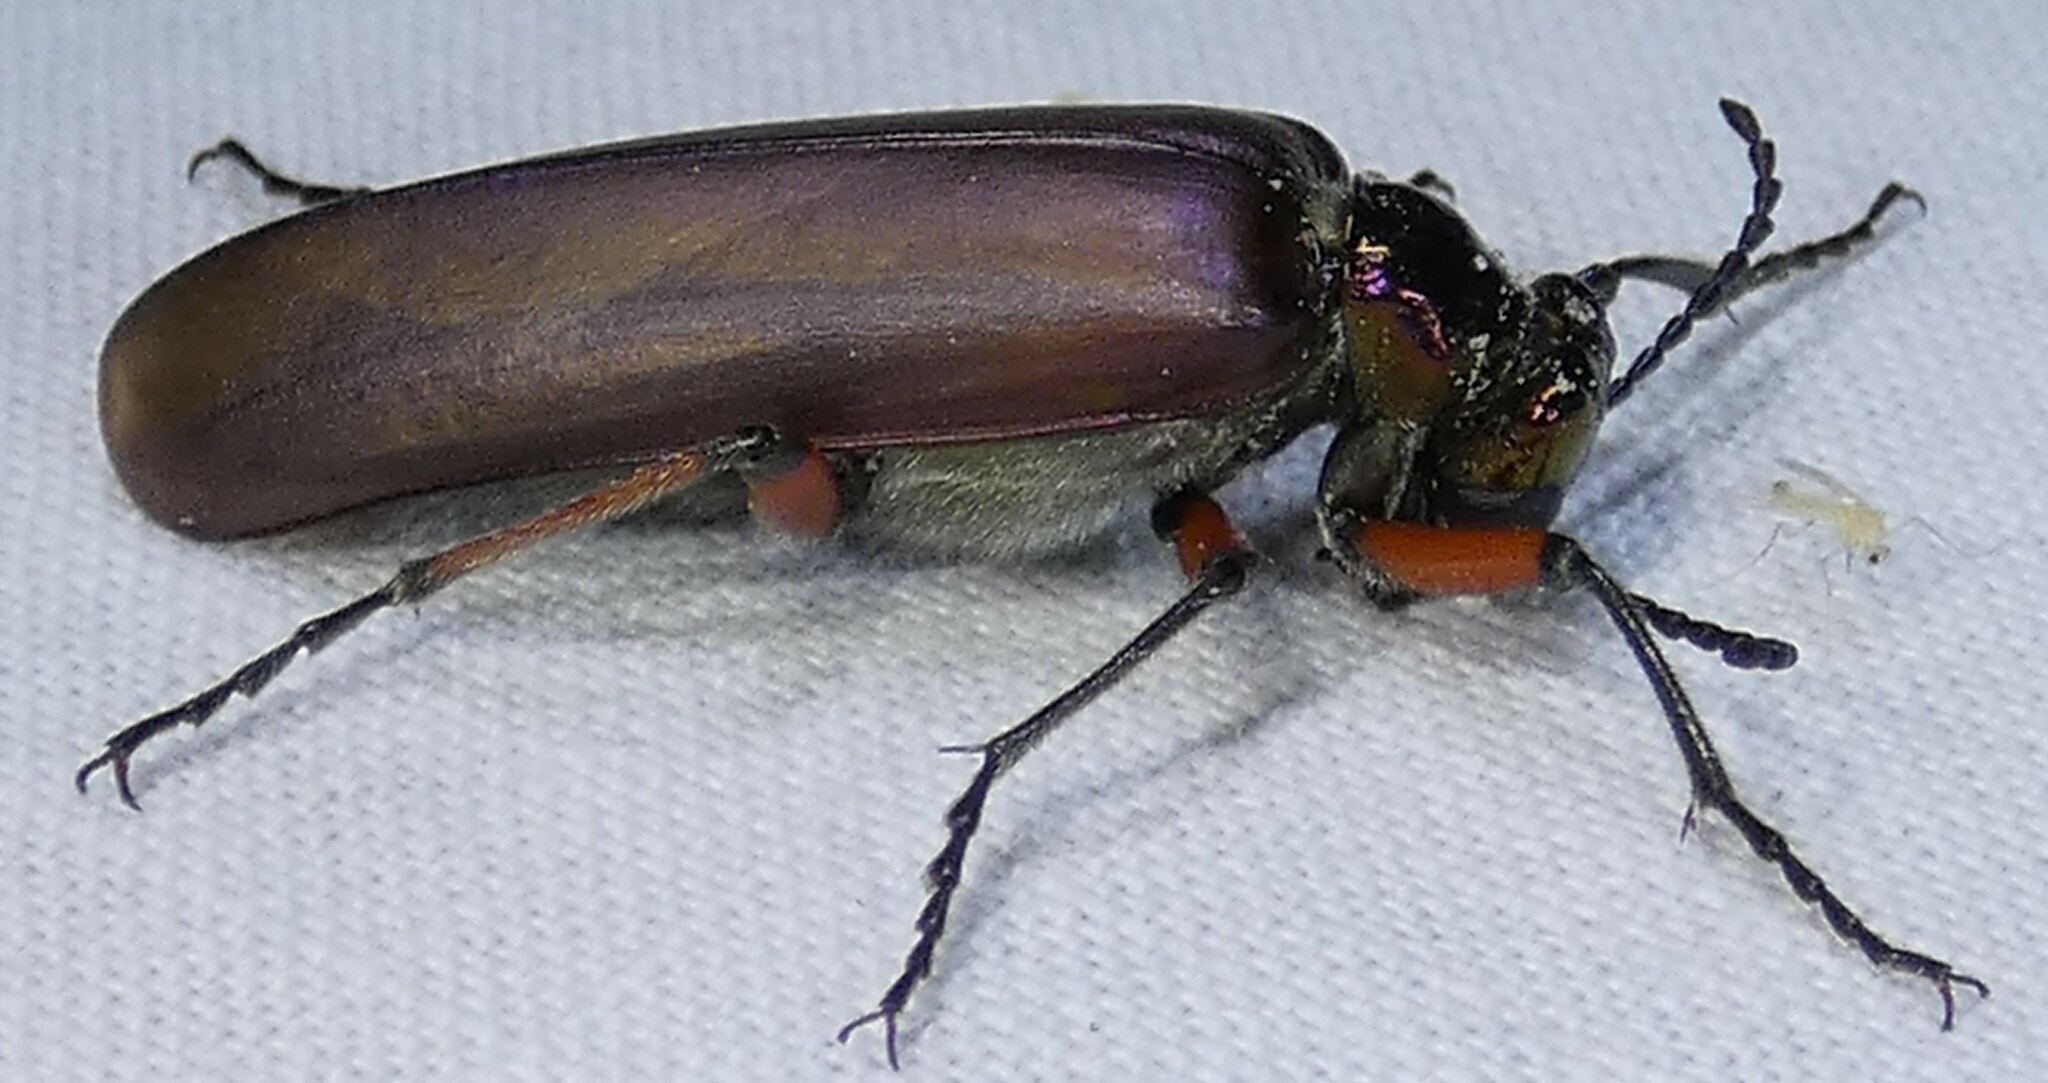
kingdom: Animalia
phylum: Arthropoda
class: Insecta
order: Coleoptera
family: Meloidae
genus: Lytta
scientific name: Lytta polita
